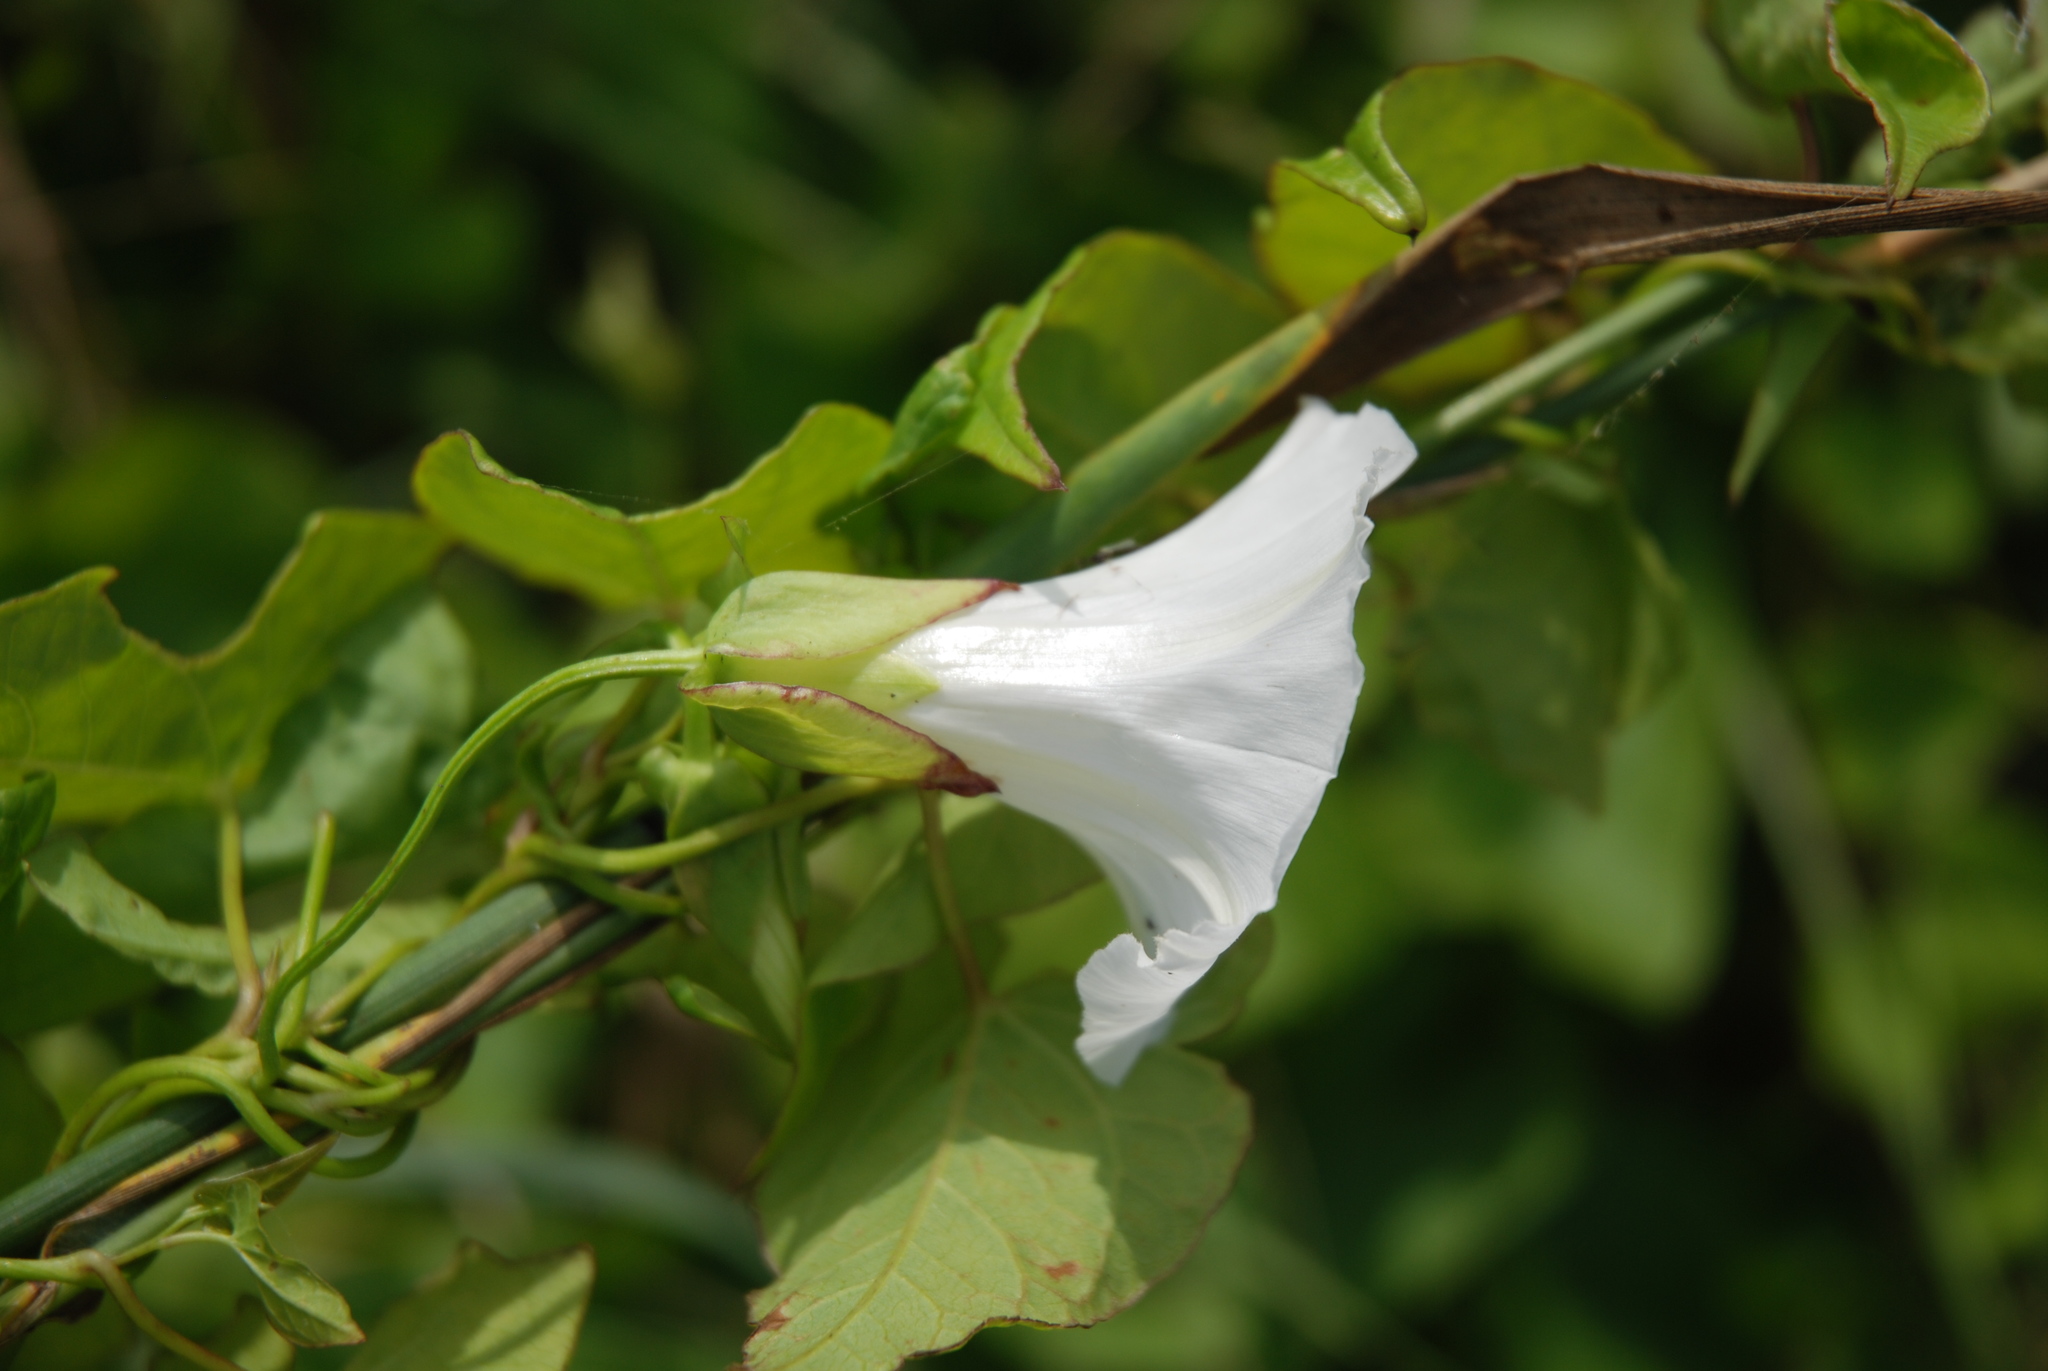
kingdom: Plantae
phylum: Tracheophyta
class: Magnoliopsida
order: Solanales
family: Convolvulaceae
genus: Calystegia
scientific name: Calystegia sepium
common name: Hedge bindweed
